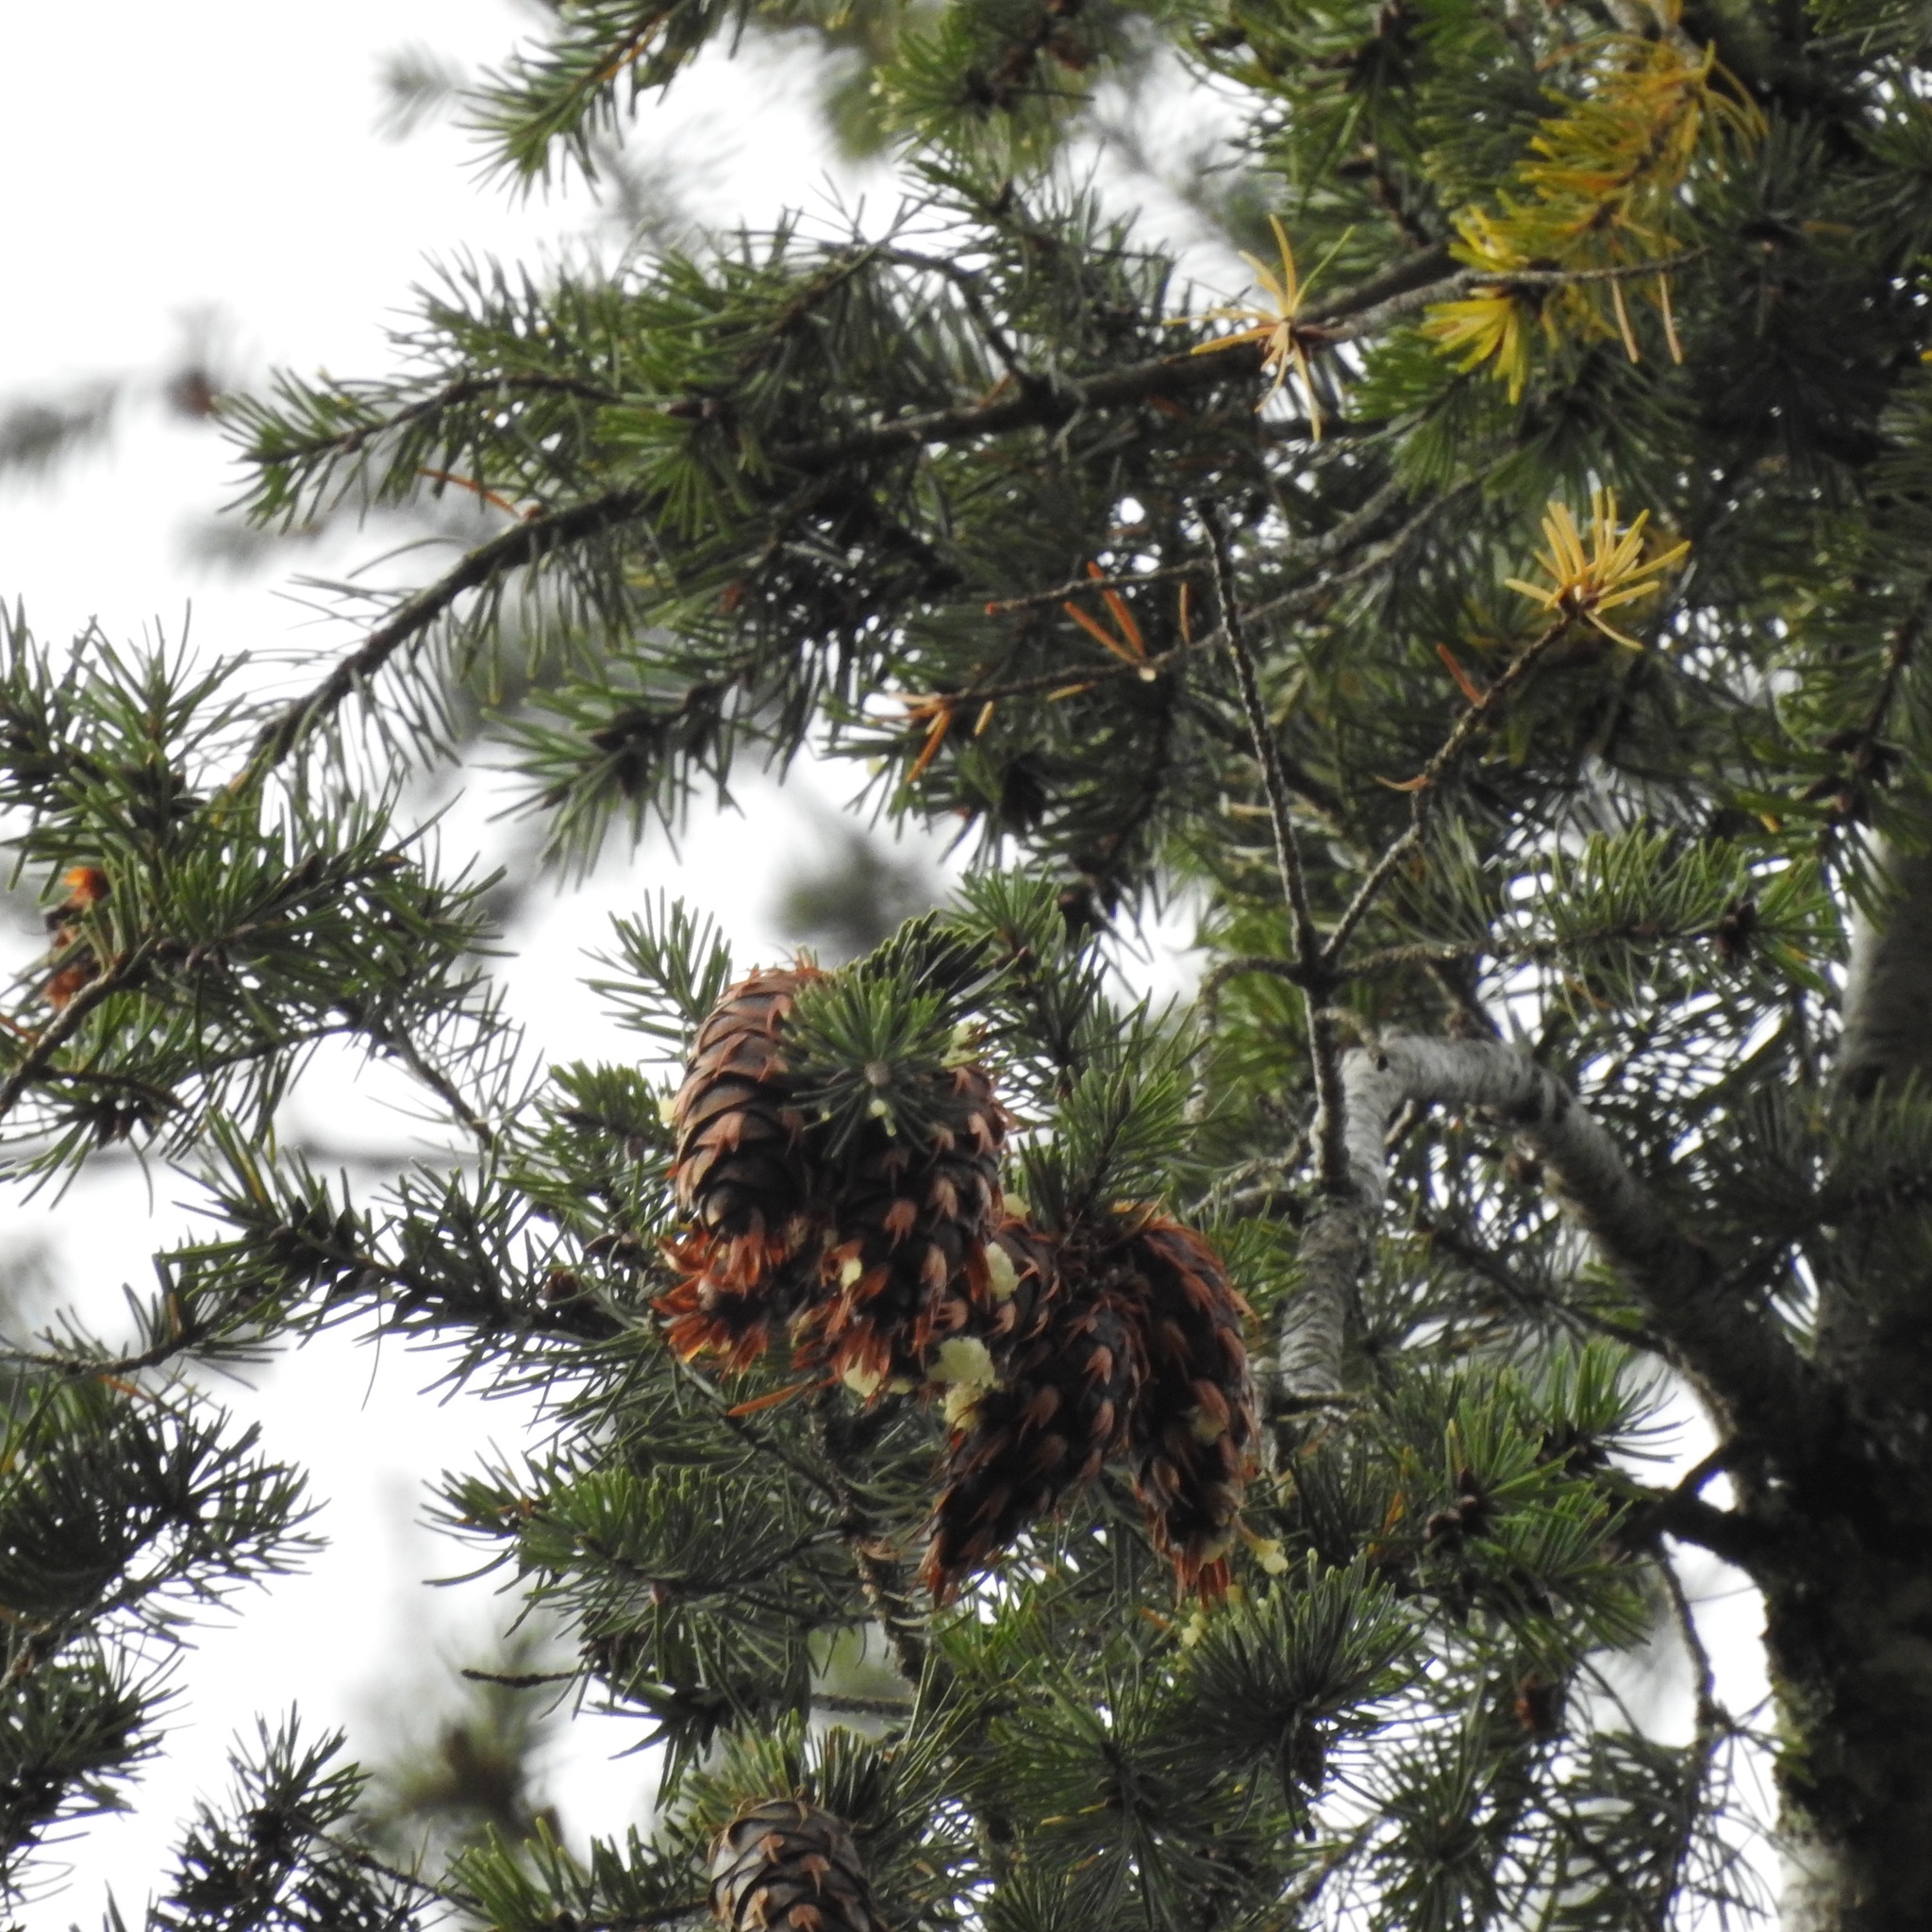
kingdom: Plantae
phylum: Tracheophyta
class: Pinopsida
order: Pinales
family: Pinaceae
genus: Pseudotsuga
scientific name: Pseudotsuga menziesii
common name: Douglas fir
